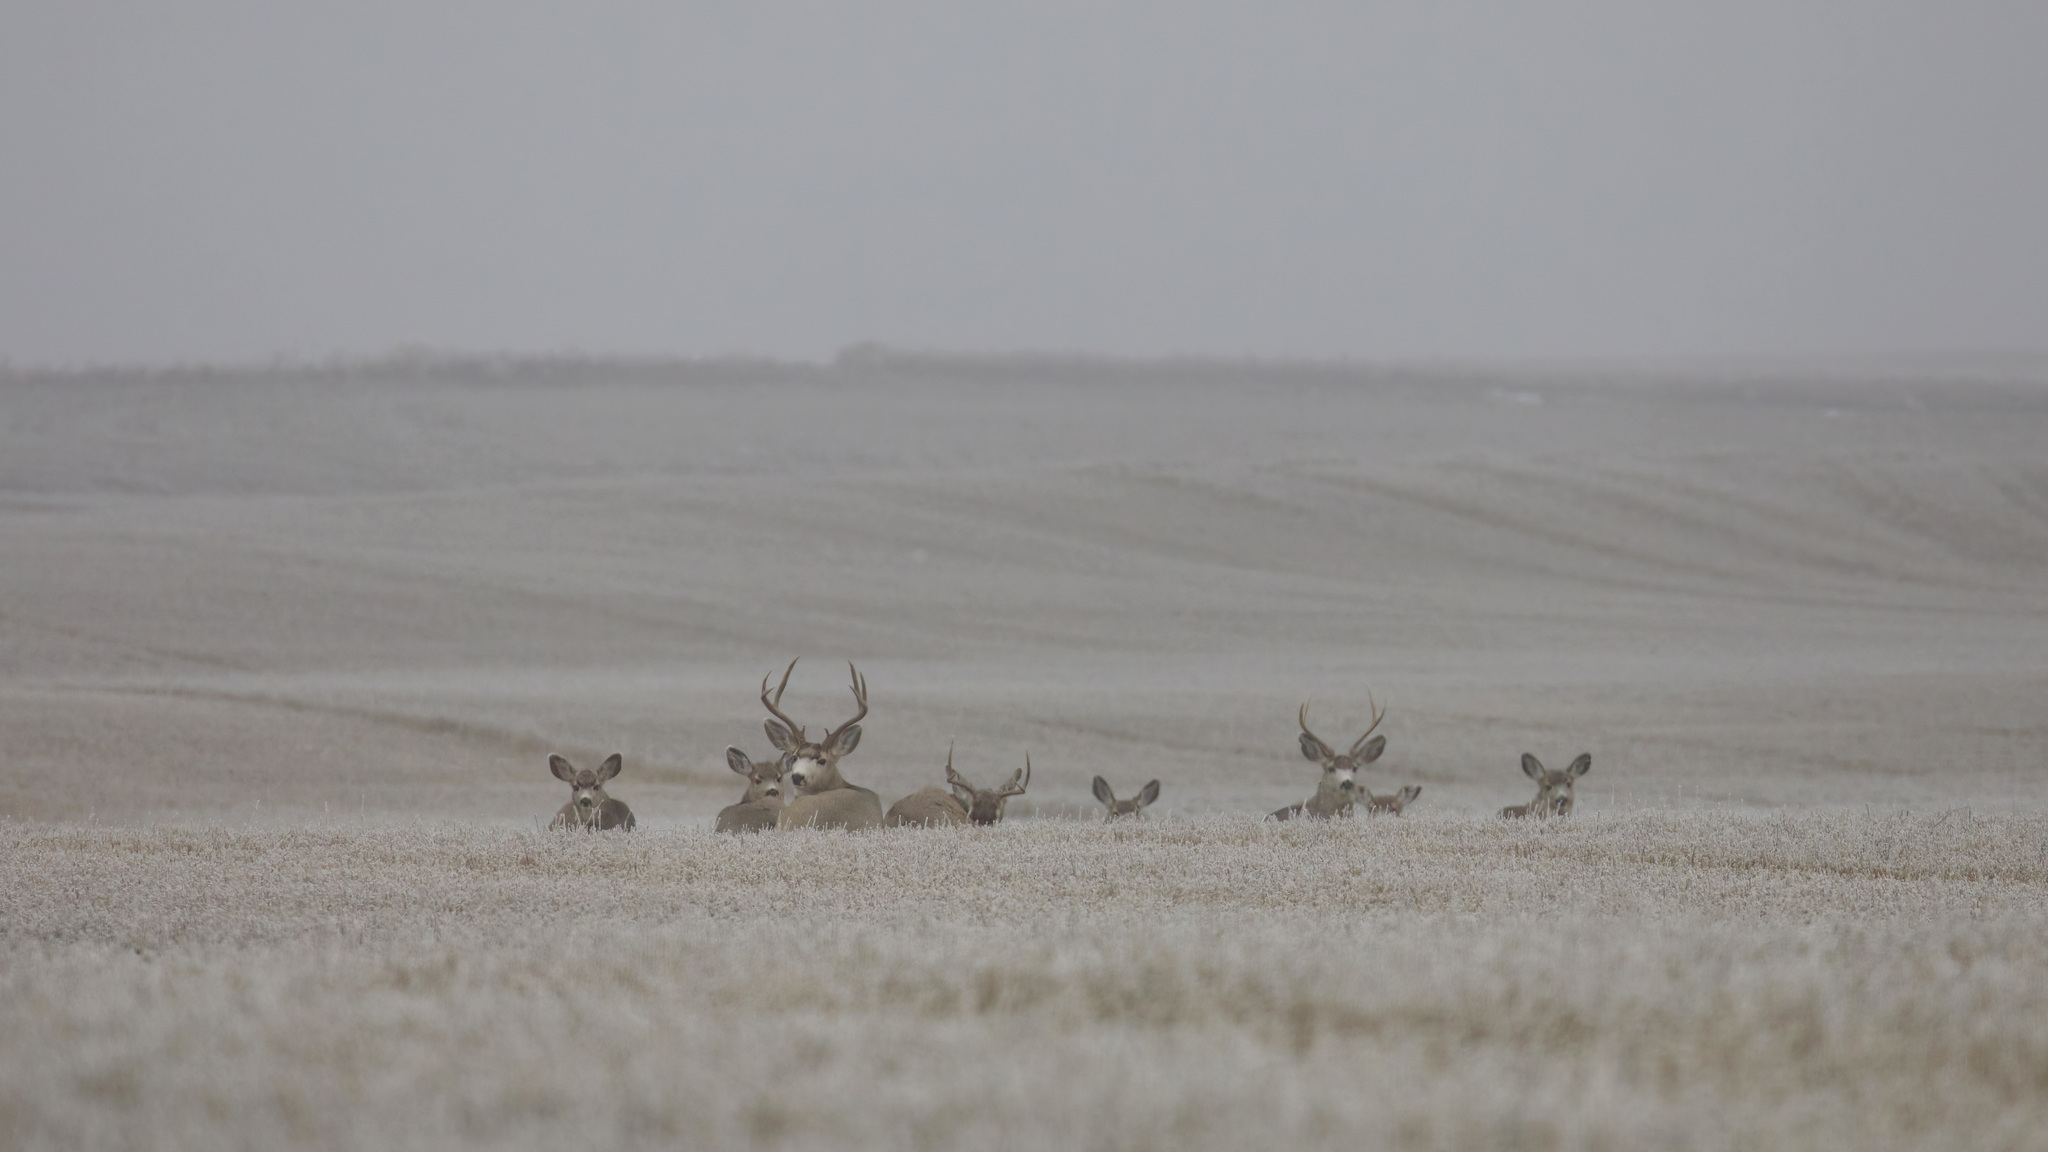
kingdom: Animalia
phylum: Chordata
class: Mammalia
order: Artiodactyla
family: Cervidae
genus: Odocoileus
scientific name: Odocoileus hemionus
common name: Mule deer
